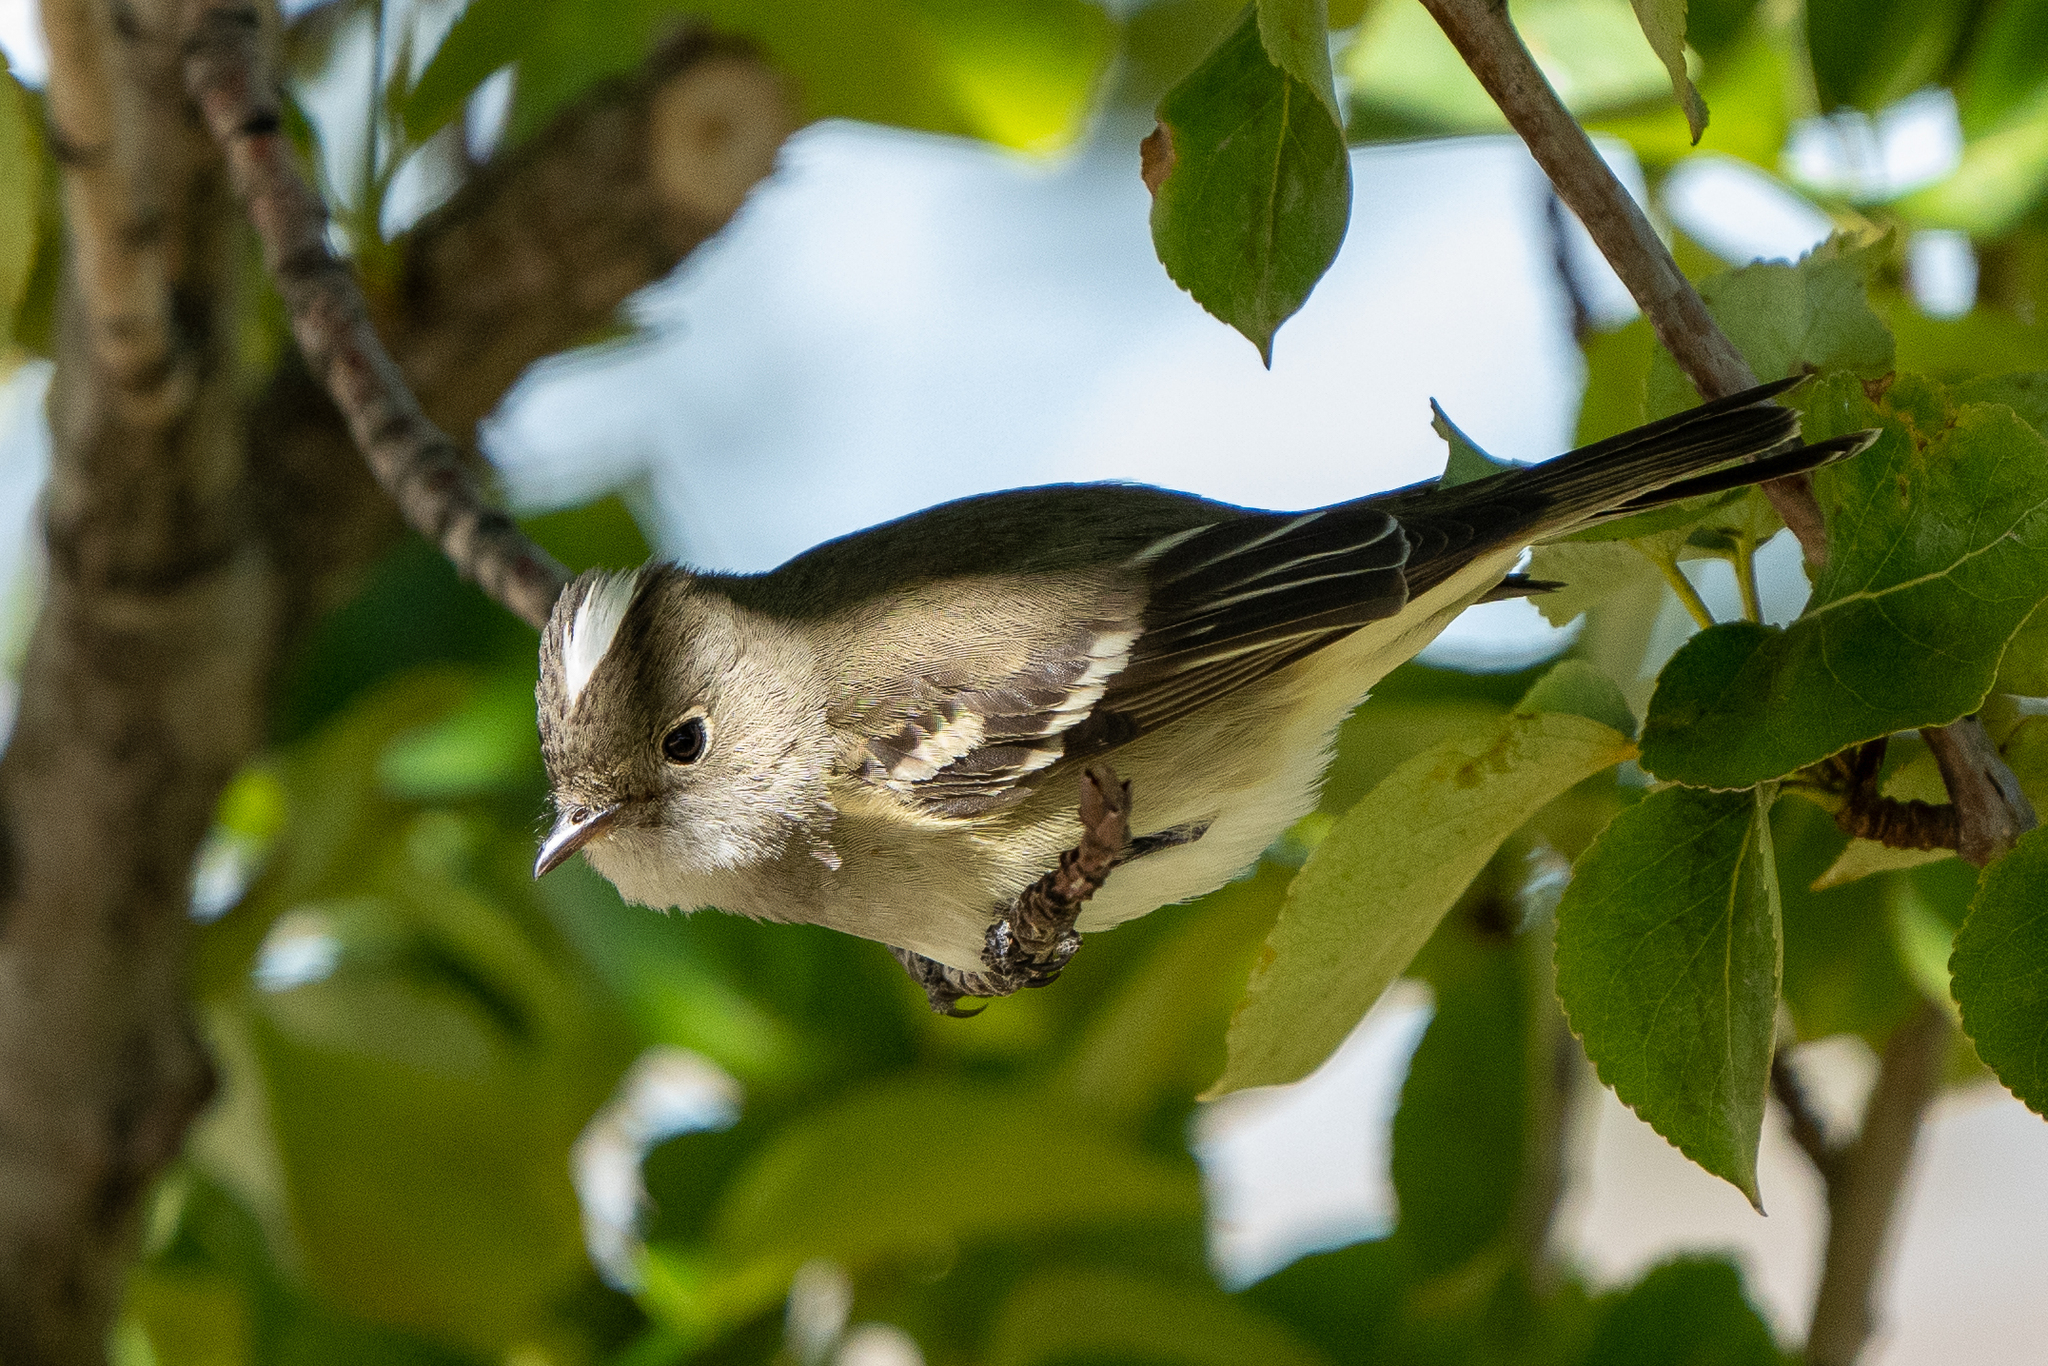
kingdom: Animalia
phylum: Chordata
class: Aves
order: Passeriformes
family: Tyrannidae
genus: Elaenia
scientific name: Elaenia albiceps
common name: White-crested elaenia
